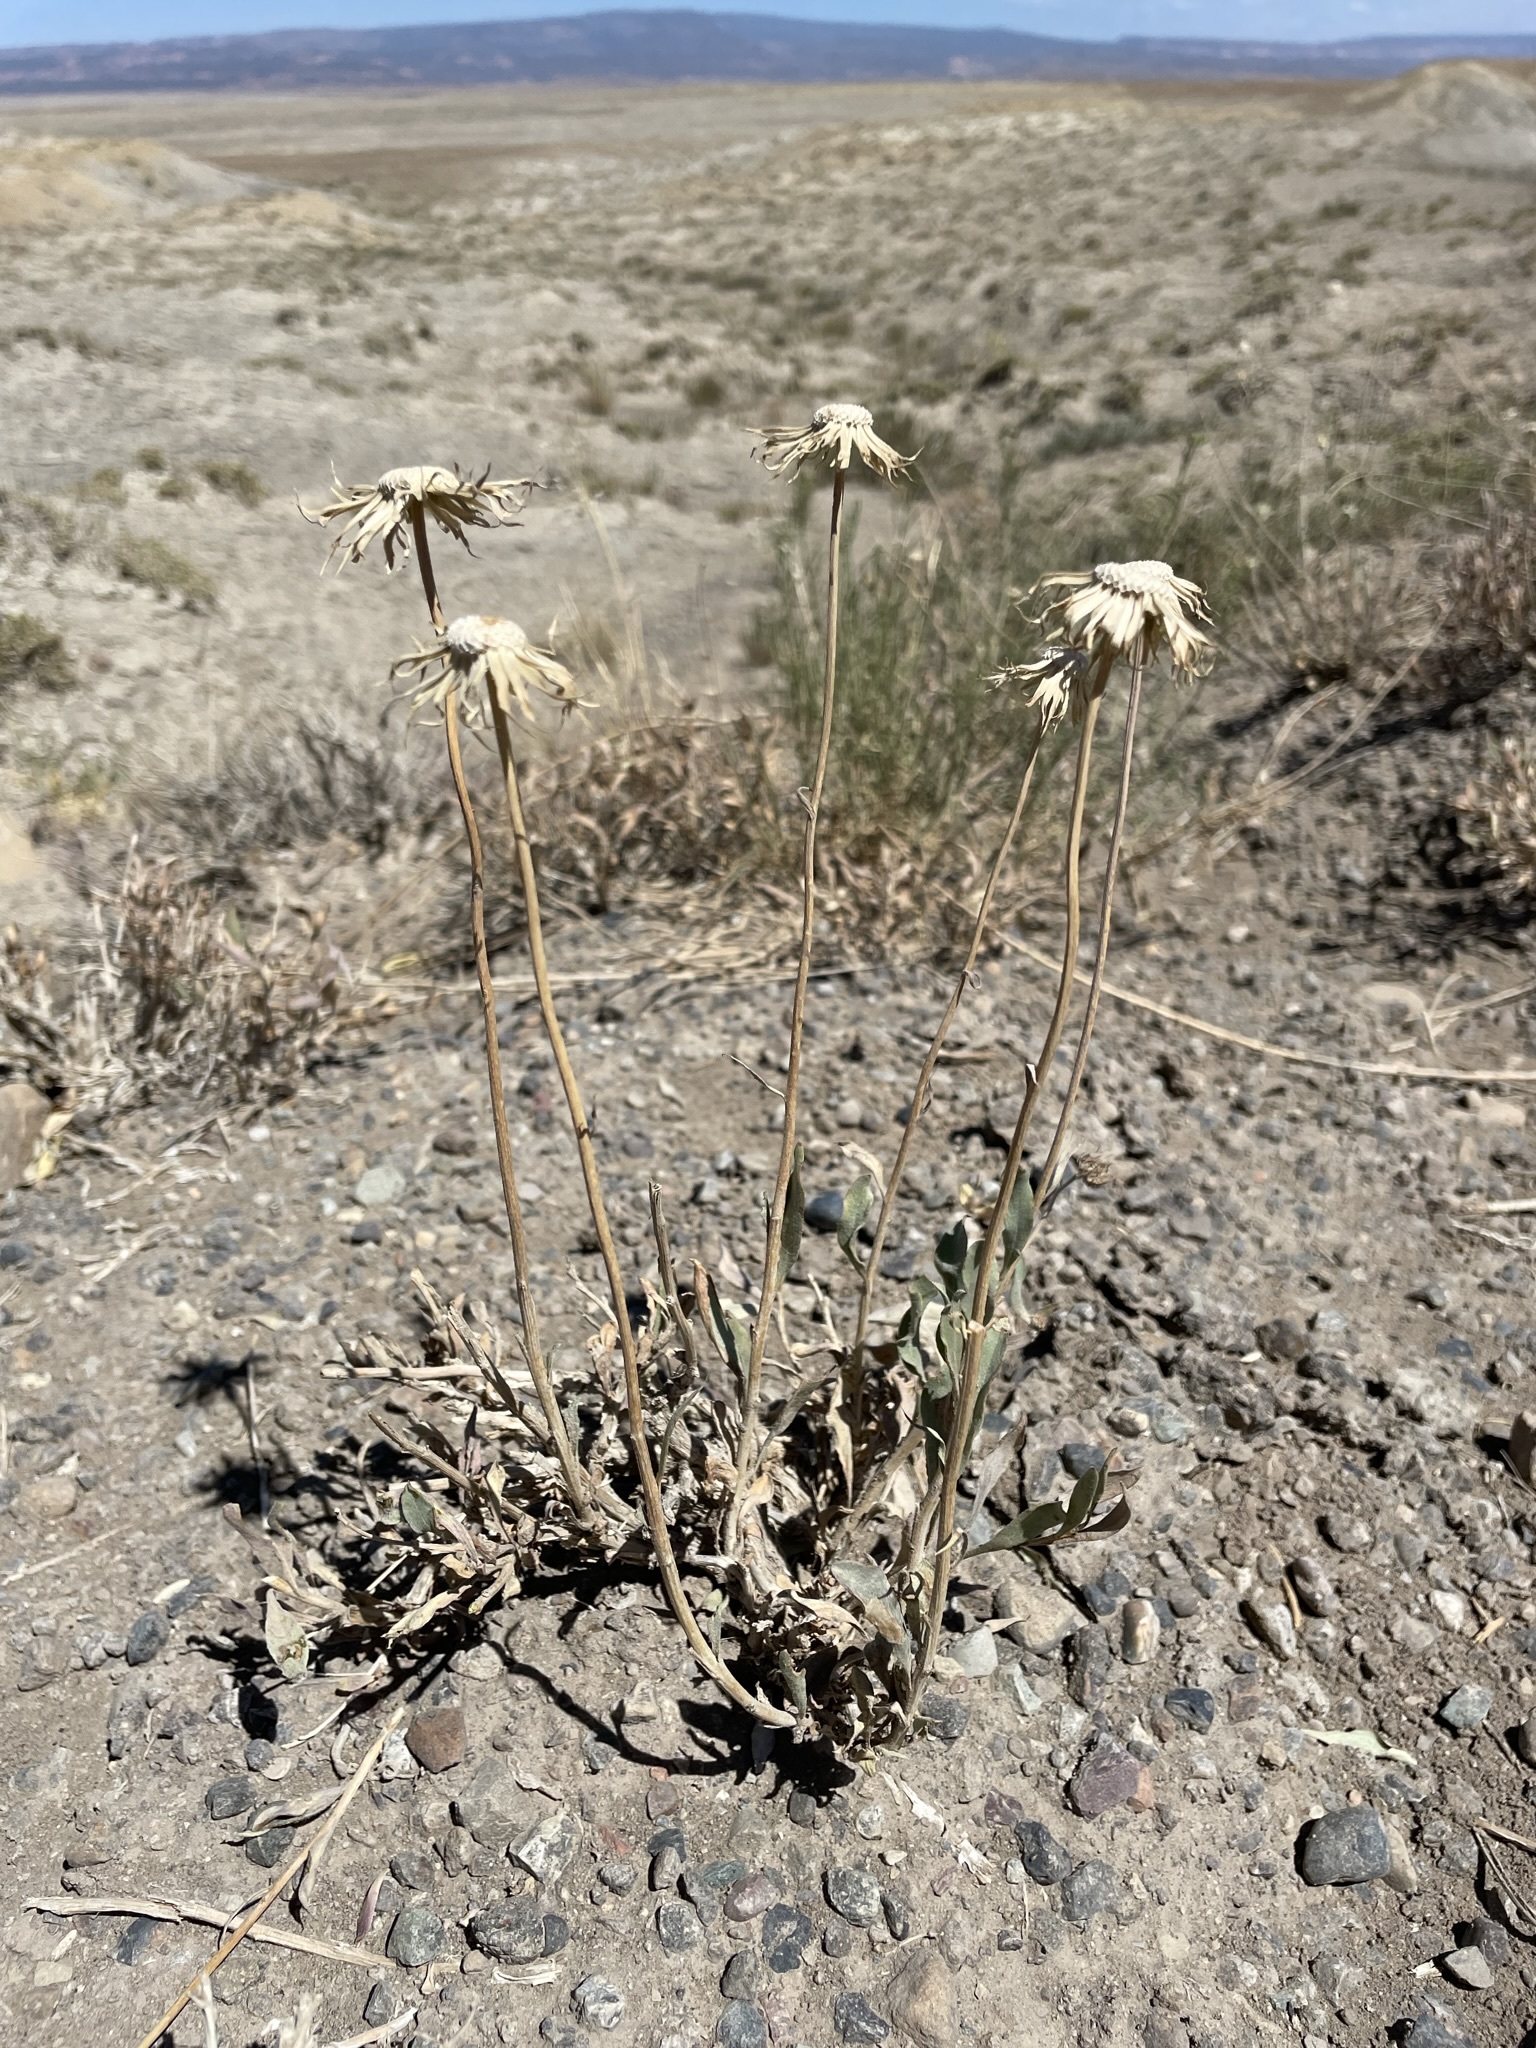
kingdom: Plantae
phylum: Tracheophyta
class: Magnoliopsida
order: Asterales
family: Asteraceae
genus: Xylorhiza
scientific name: Xylorhiza venusta
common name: Cisco woody-aster
